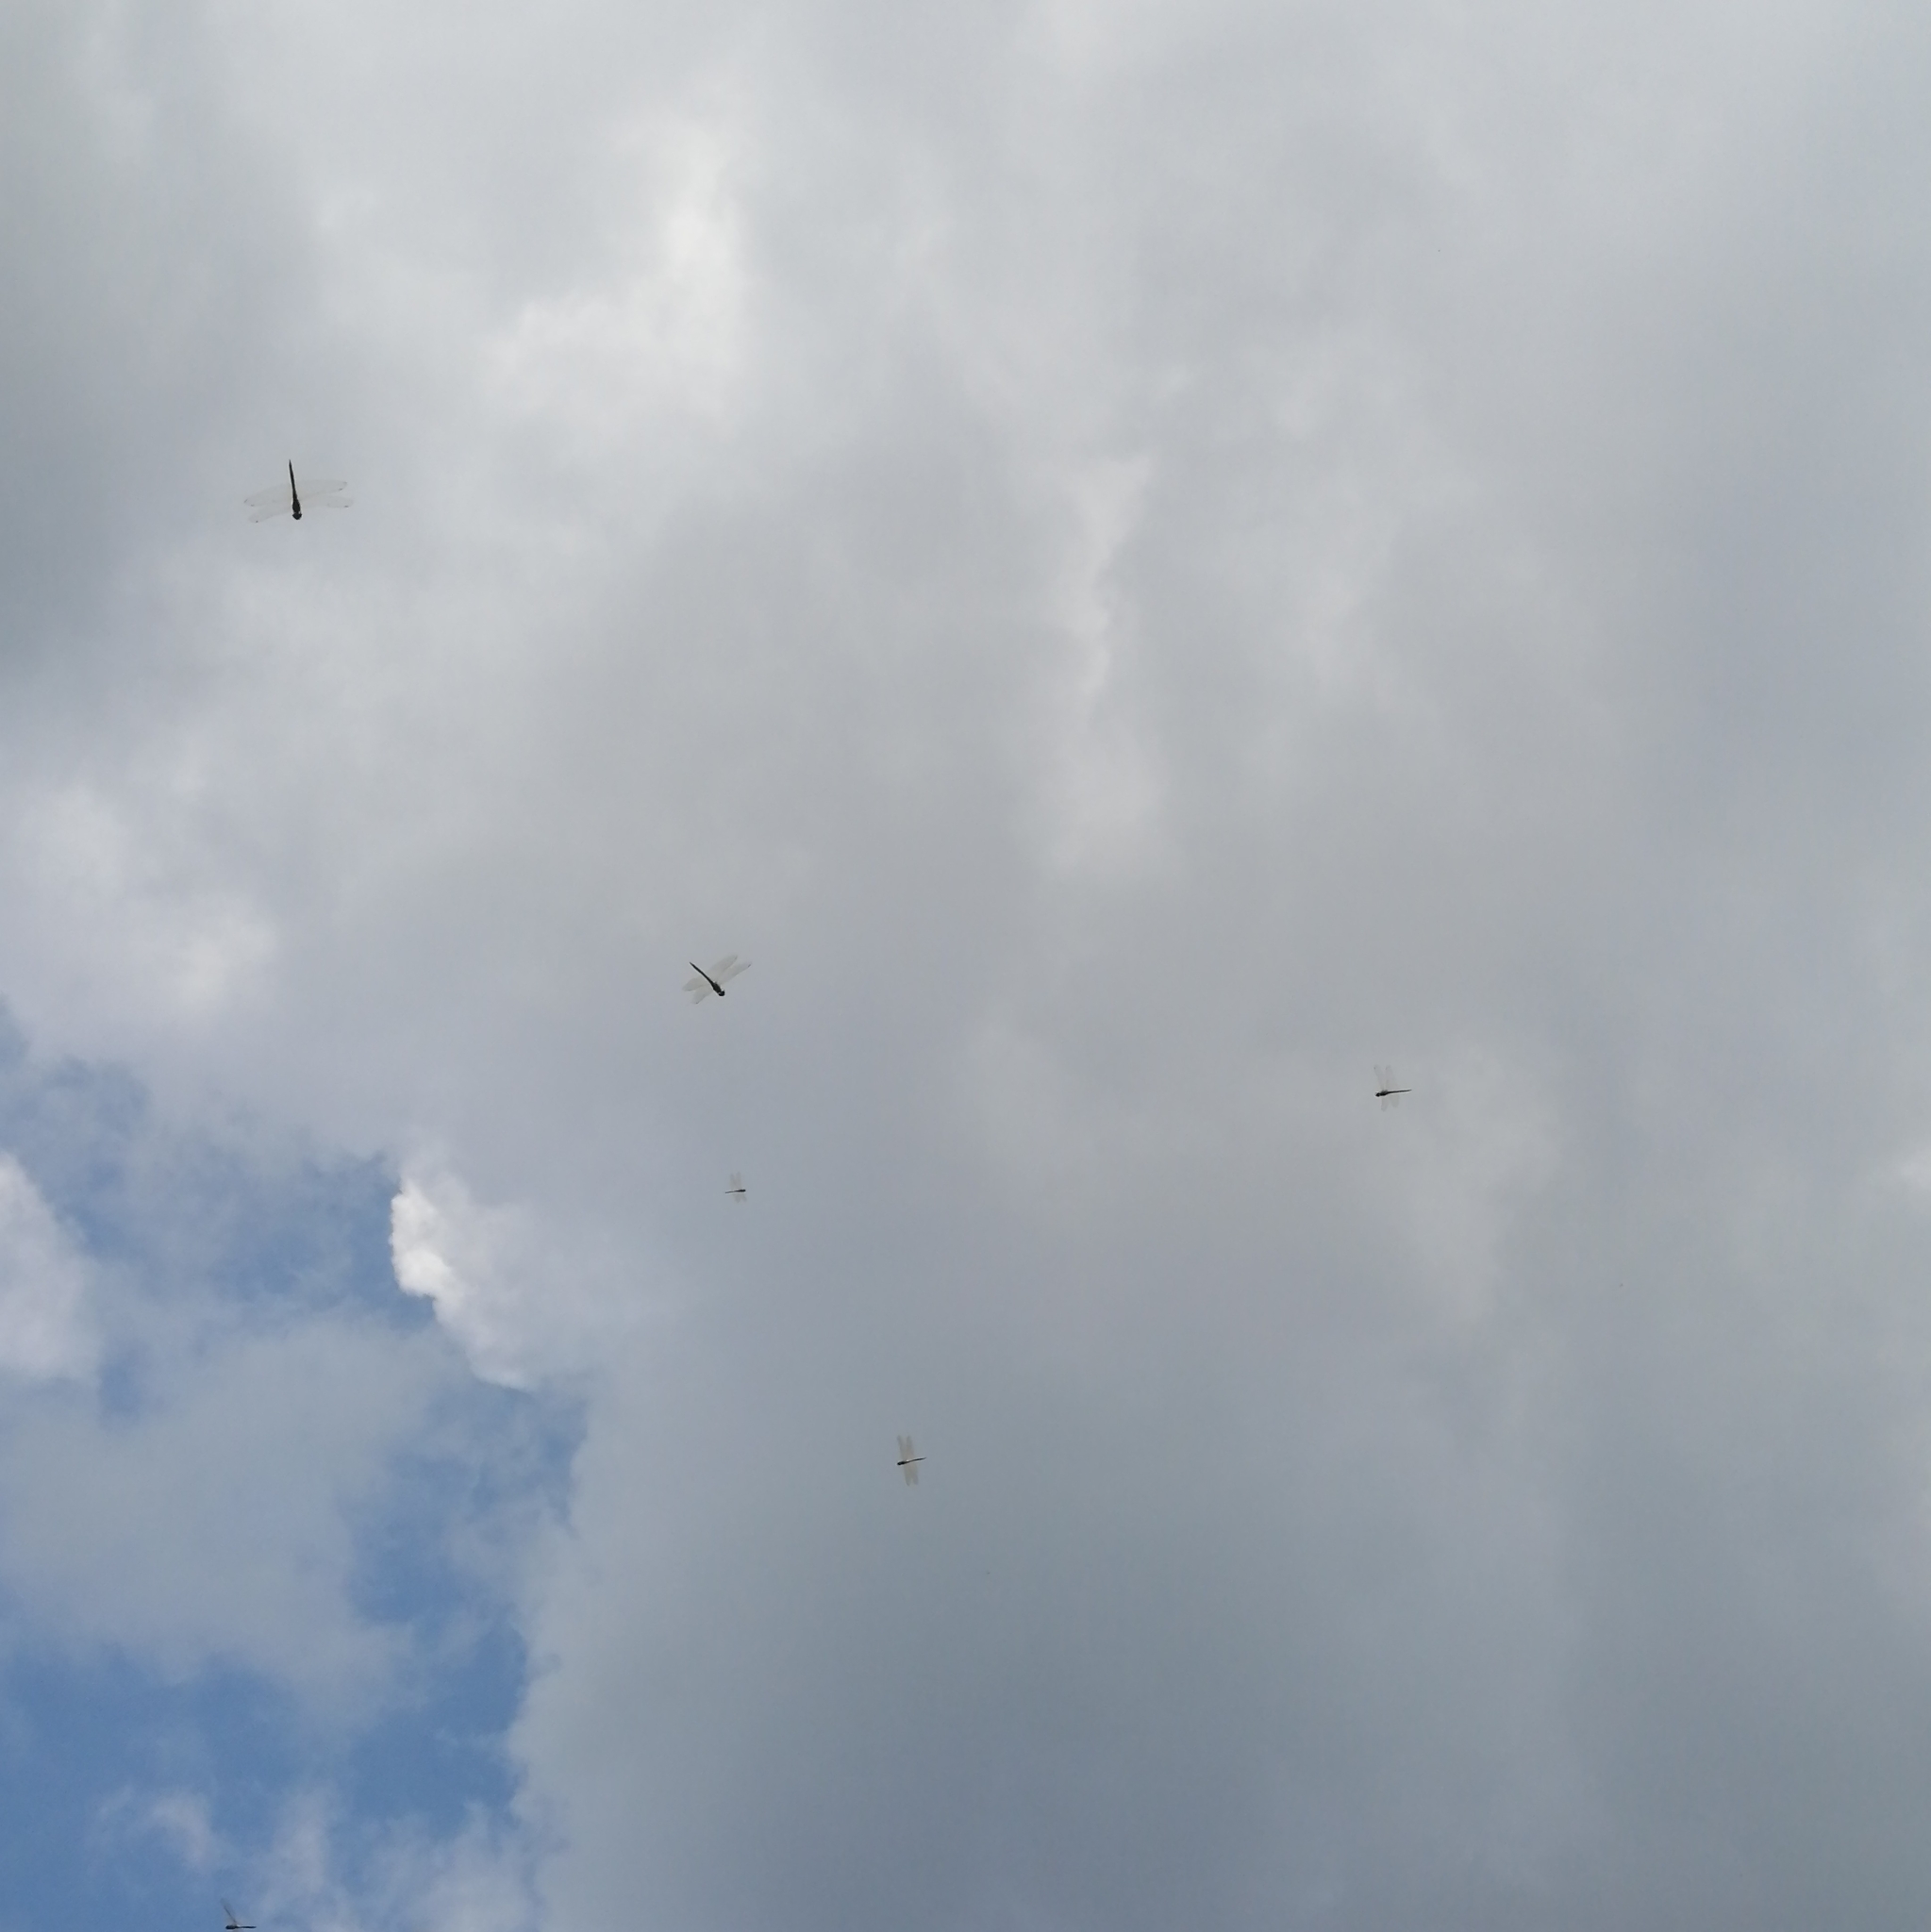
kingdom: Animalia
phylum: Arthropoda
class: Insecta
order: Odonata
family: Libellulidae
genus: Pantala
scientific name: Pantala flavescens
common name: Wandering glider
